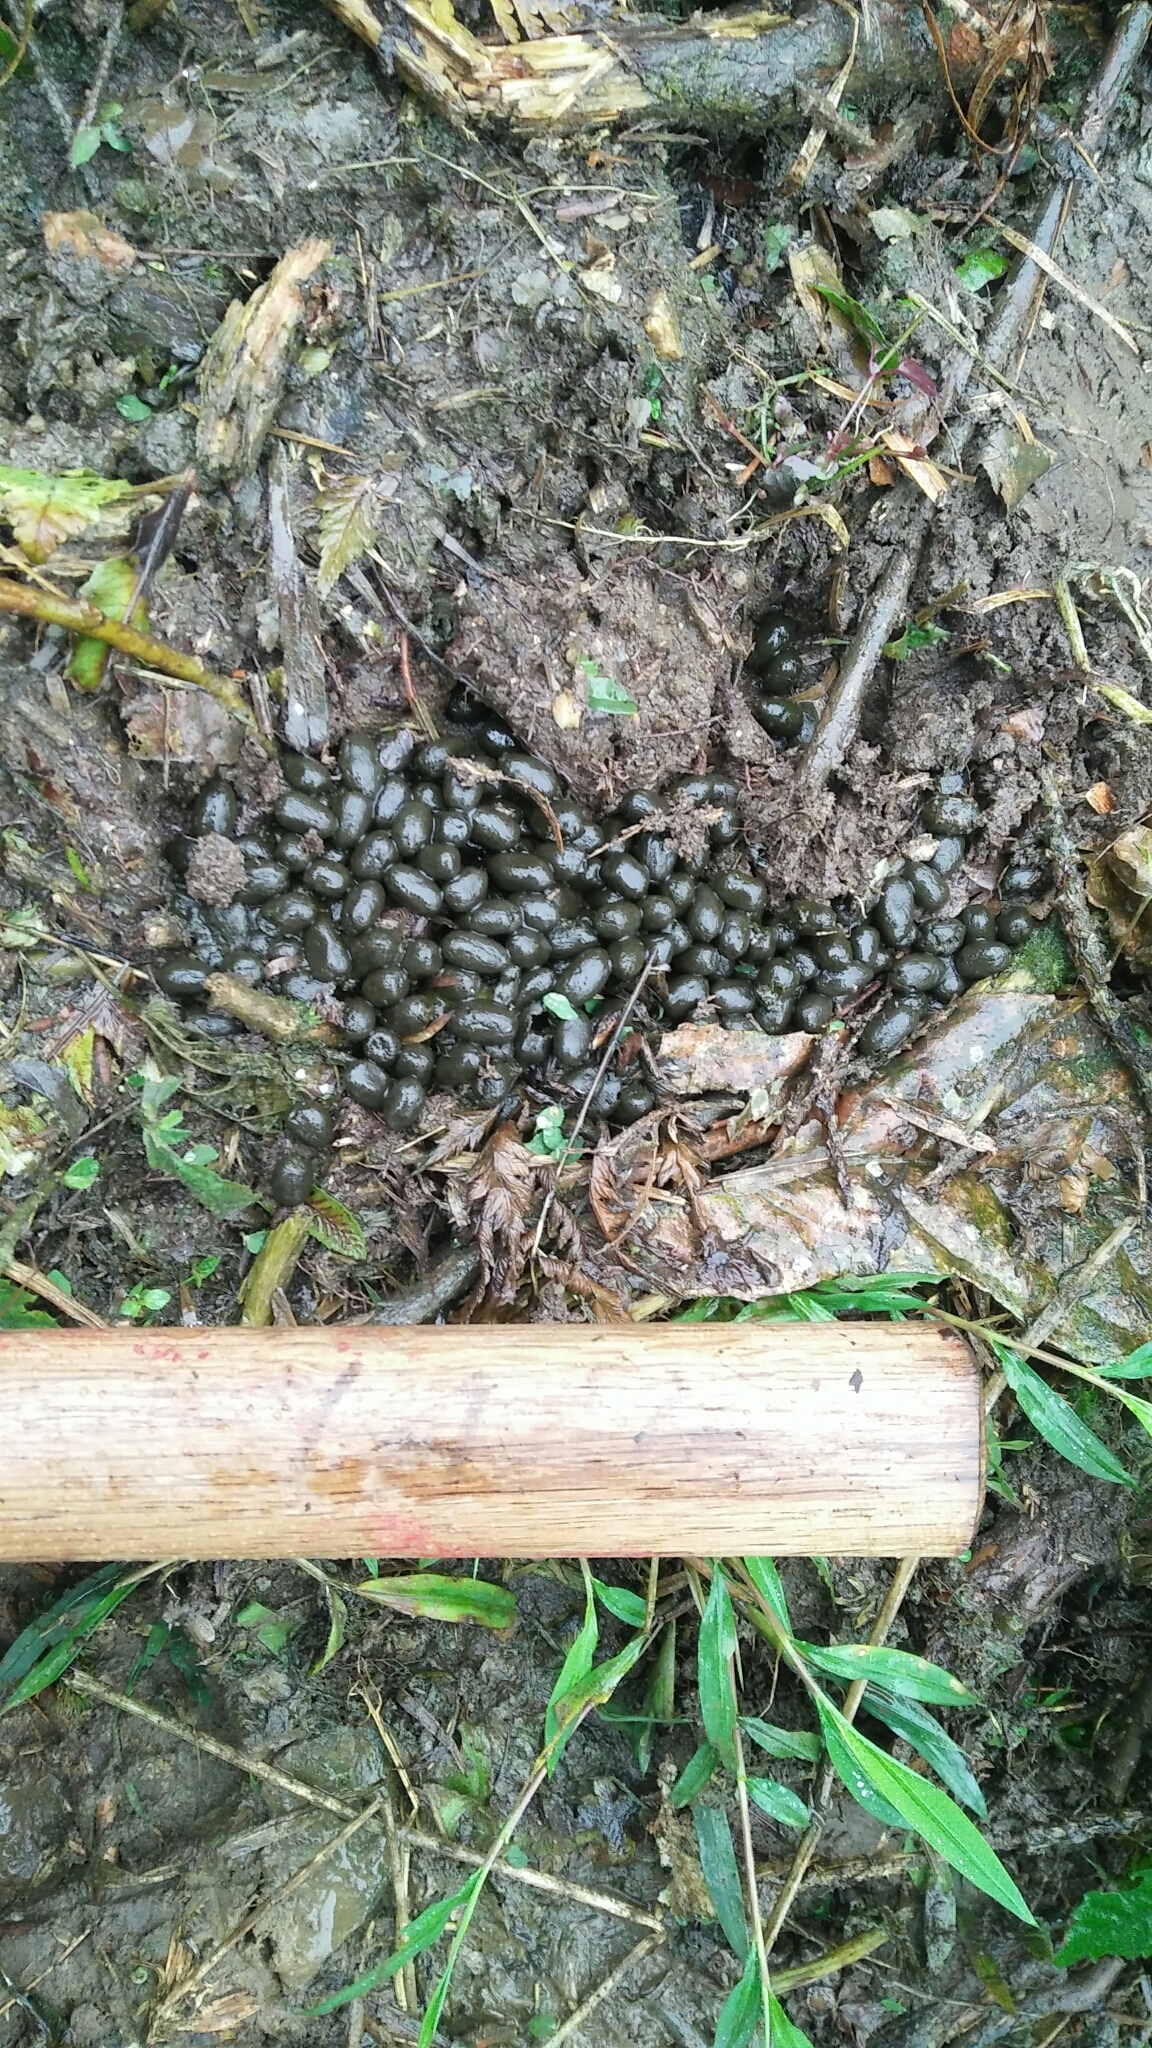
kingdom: Animalia
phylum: Chordata
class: Mammalia
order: Artiodactyla
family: Cervidae
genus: Muntiacus
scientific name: Muntiacus reevesi
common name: Reeves' muntjac
